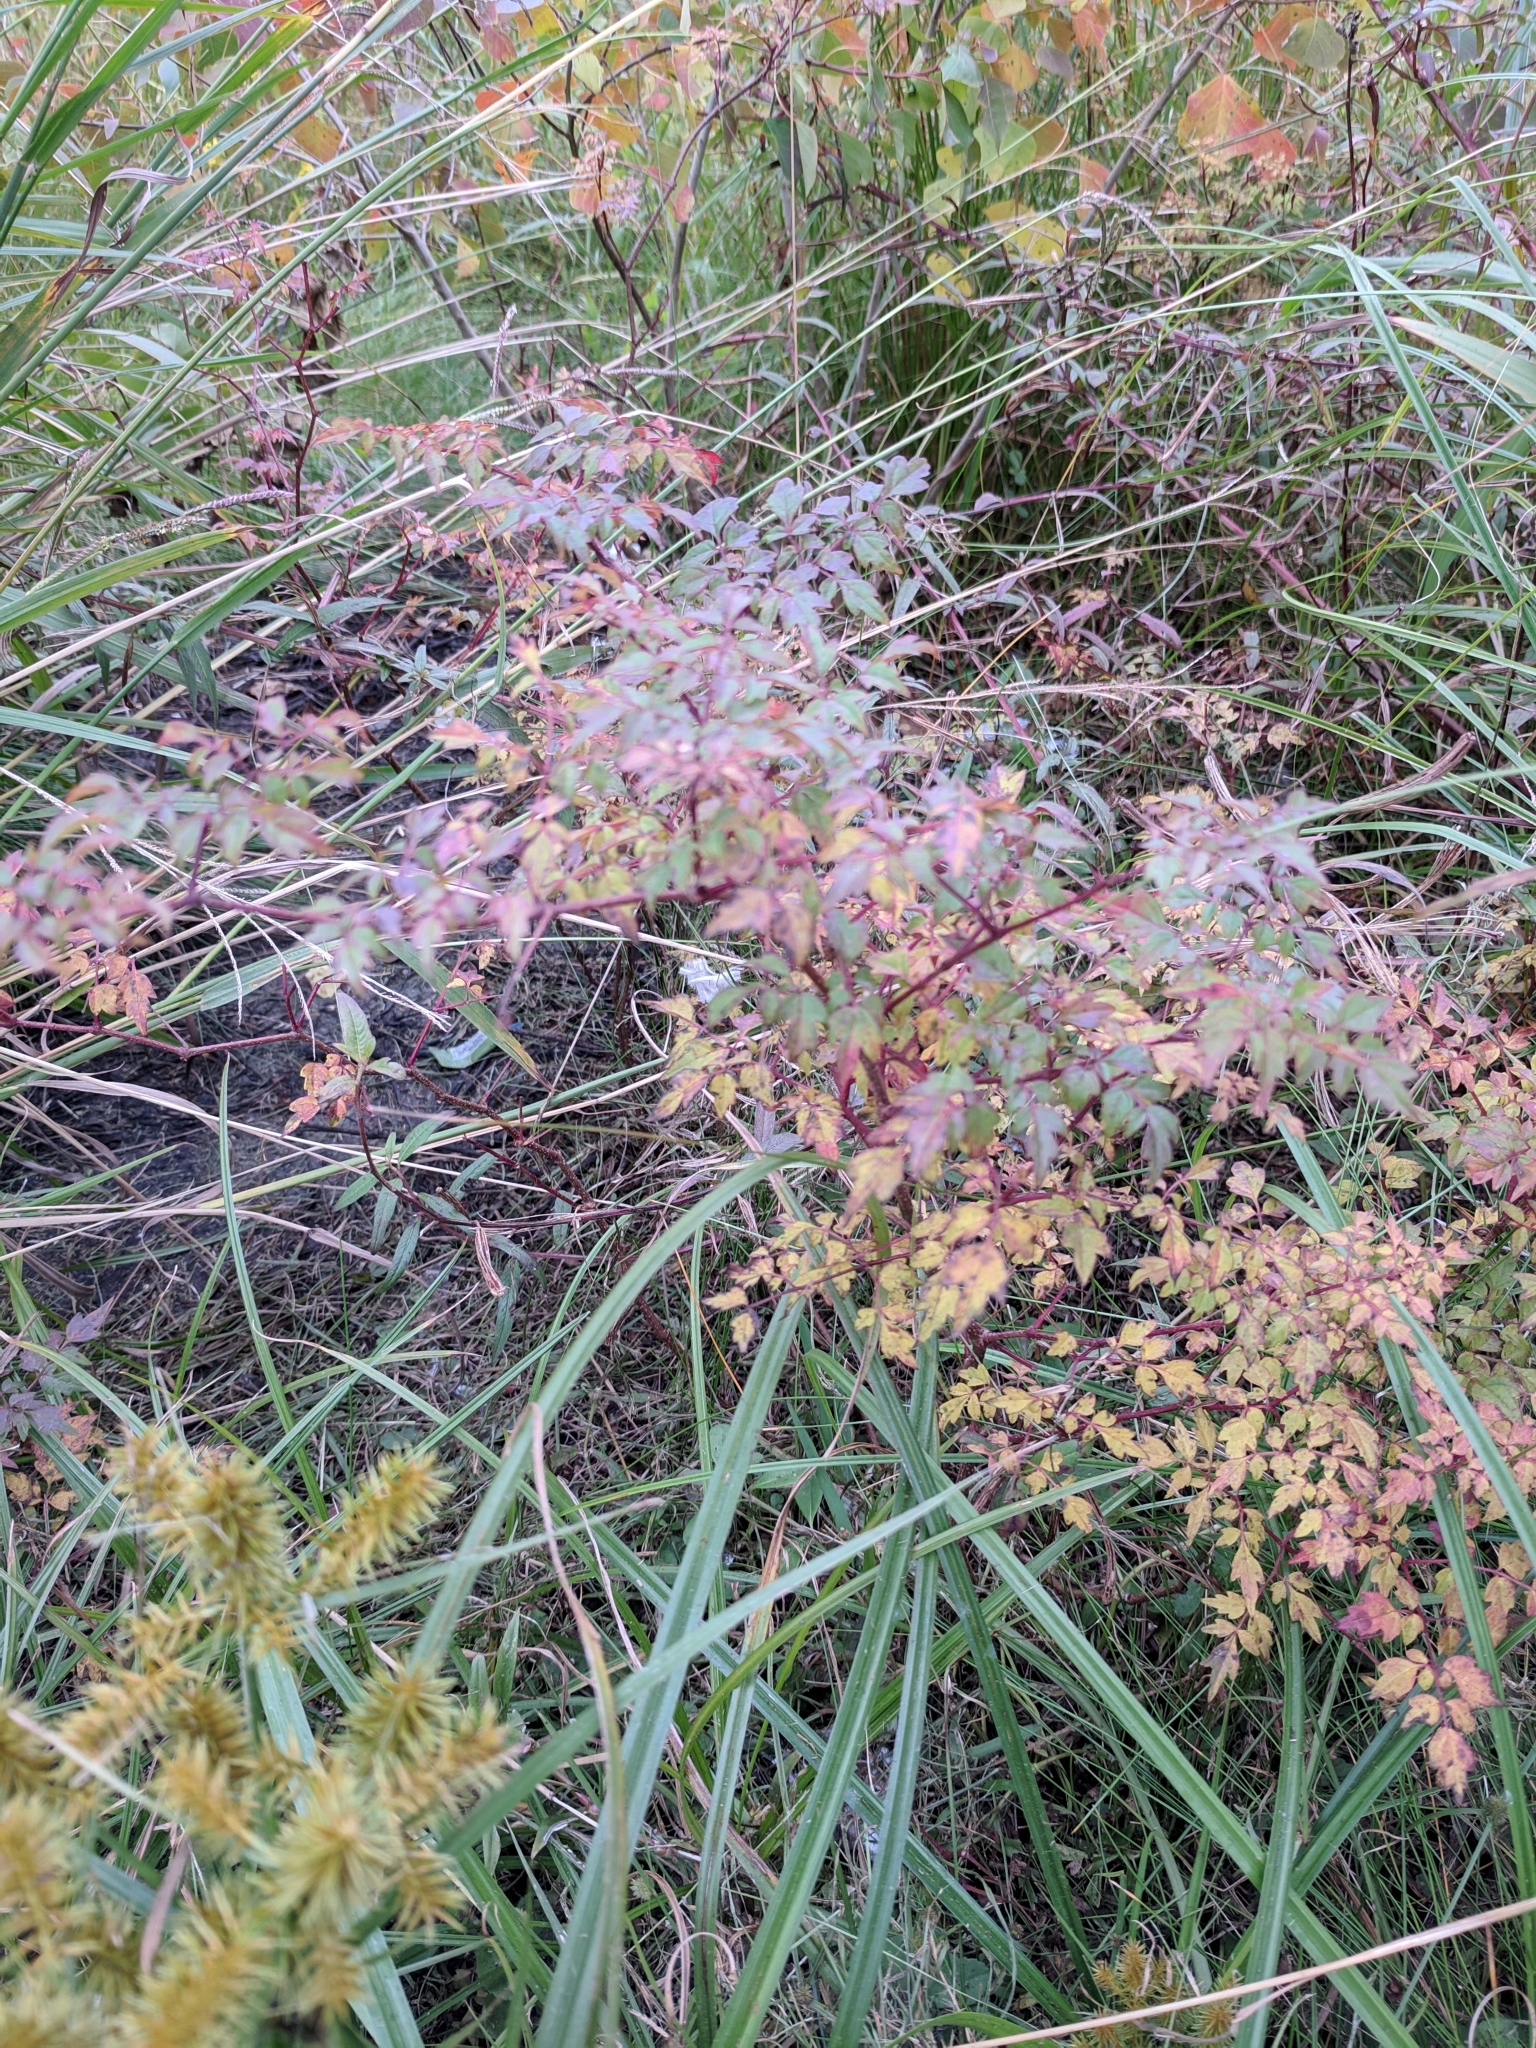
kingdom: Plantae
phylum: Tracheophyta
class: Magnoliopsida
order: Vitales
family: Vitaceae
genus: Nekemias
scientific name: Nekemias arborea
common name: Peppervine
